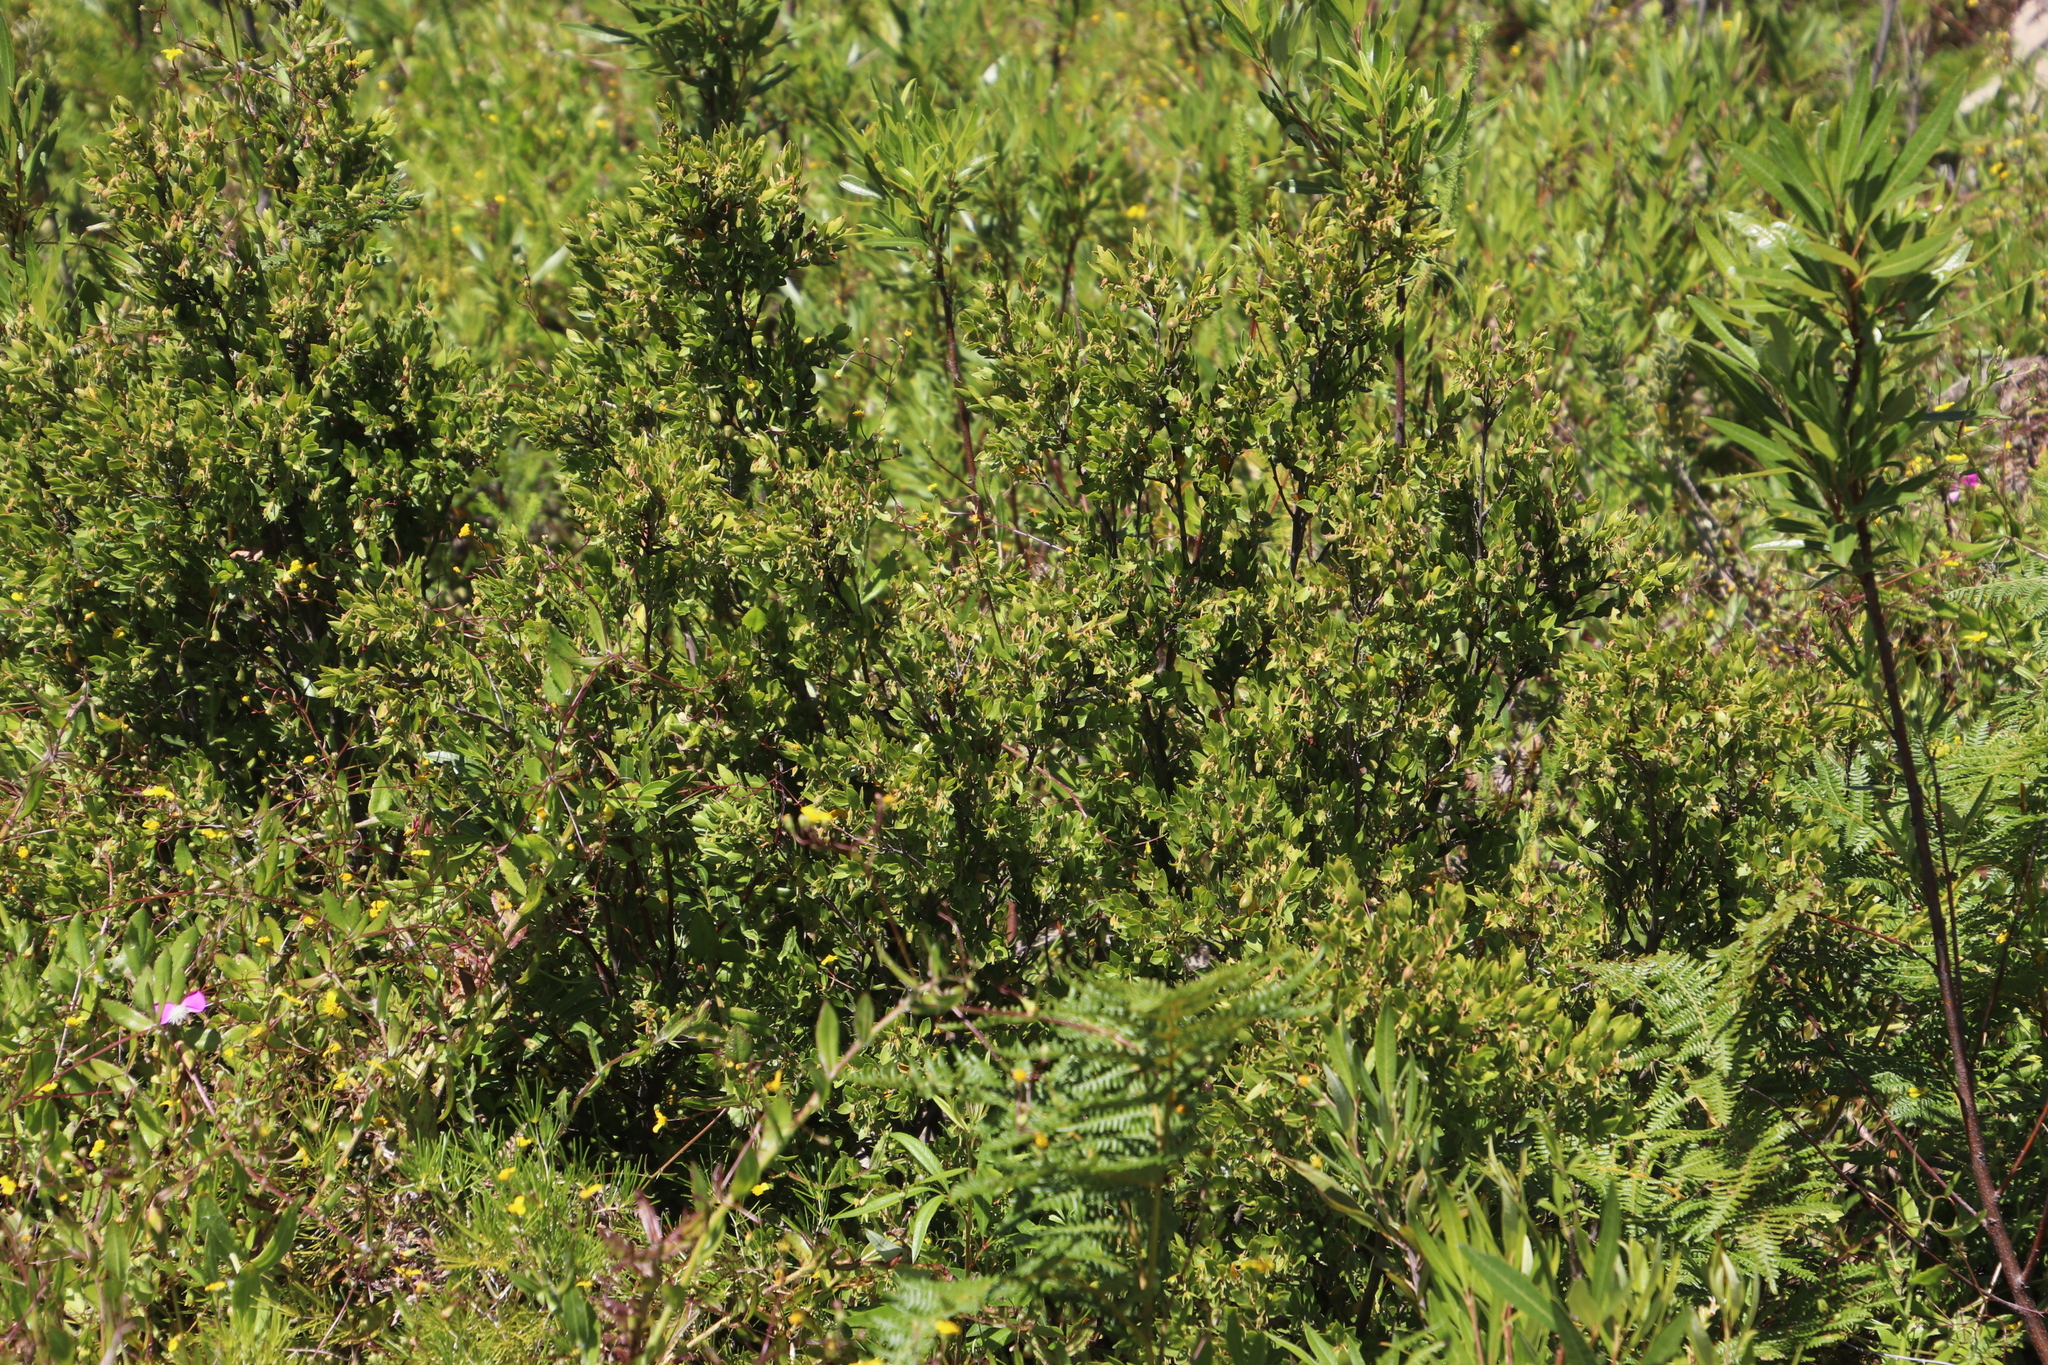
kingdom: Plantae
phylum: Tracheophyta
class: Magnoliopsida
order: Ericales
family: Ebenaceae
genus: Diospyros
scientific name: Diospyros glabra
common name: Fynbos star apple
